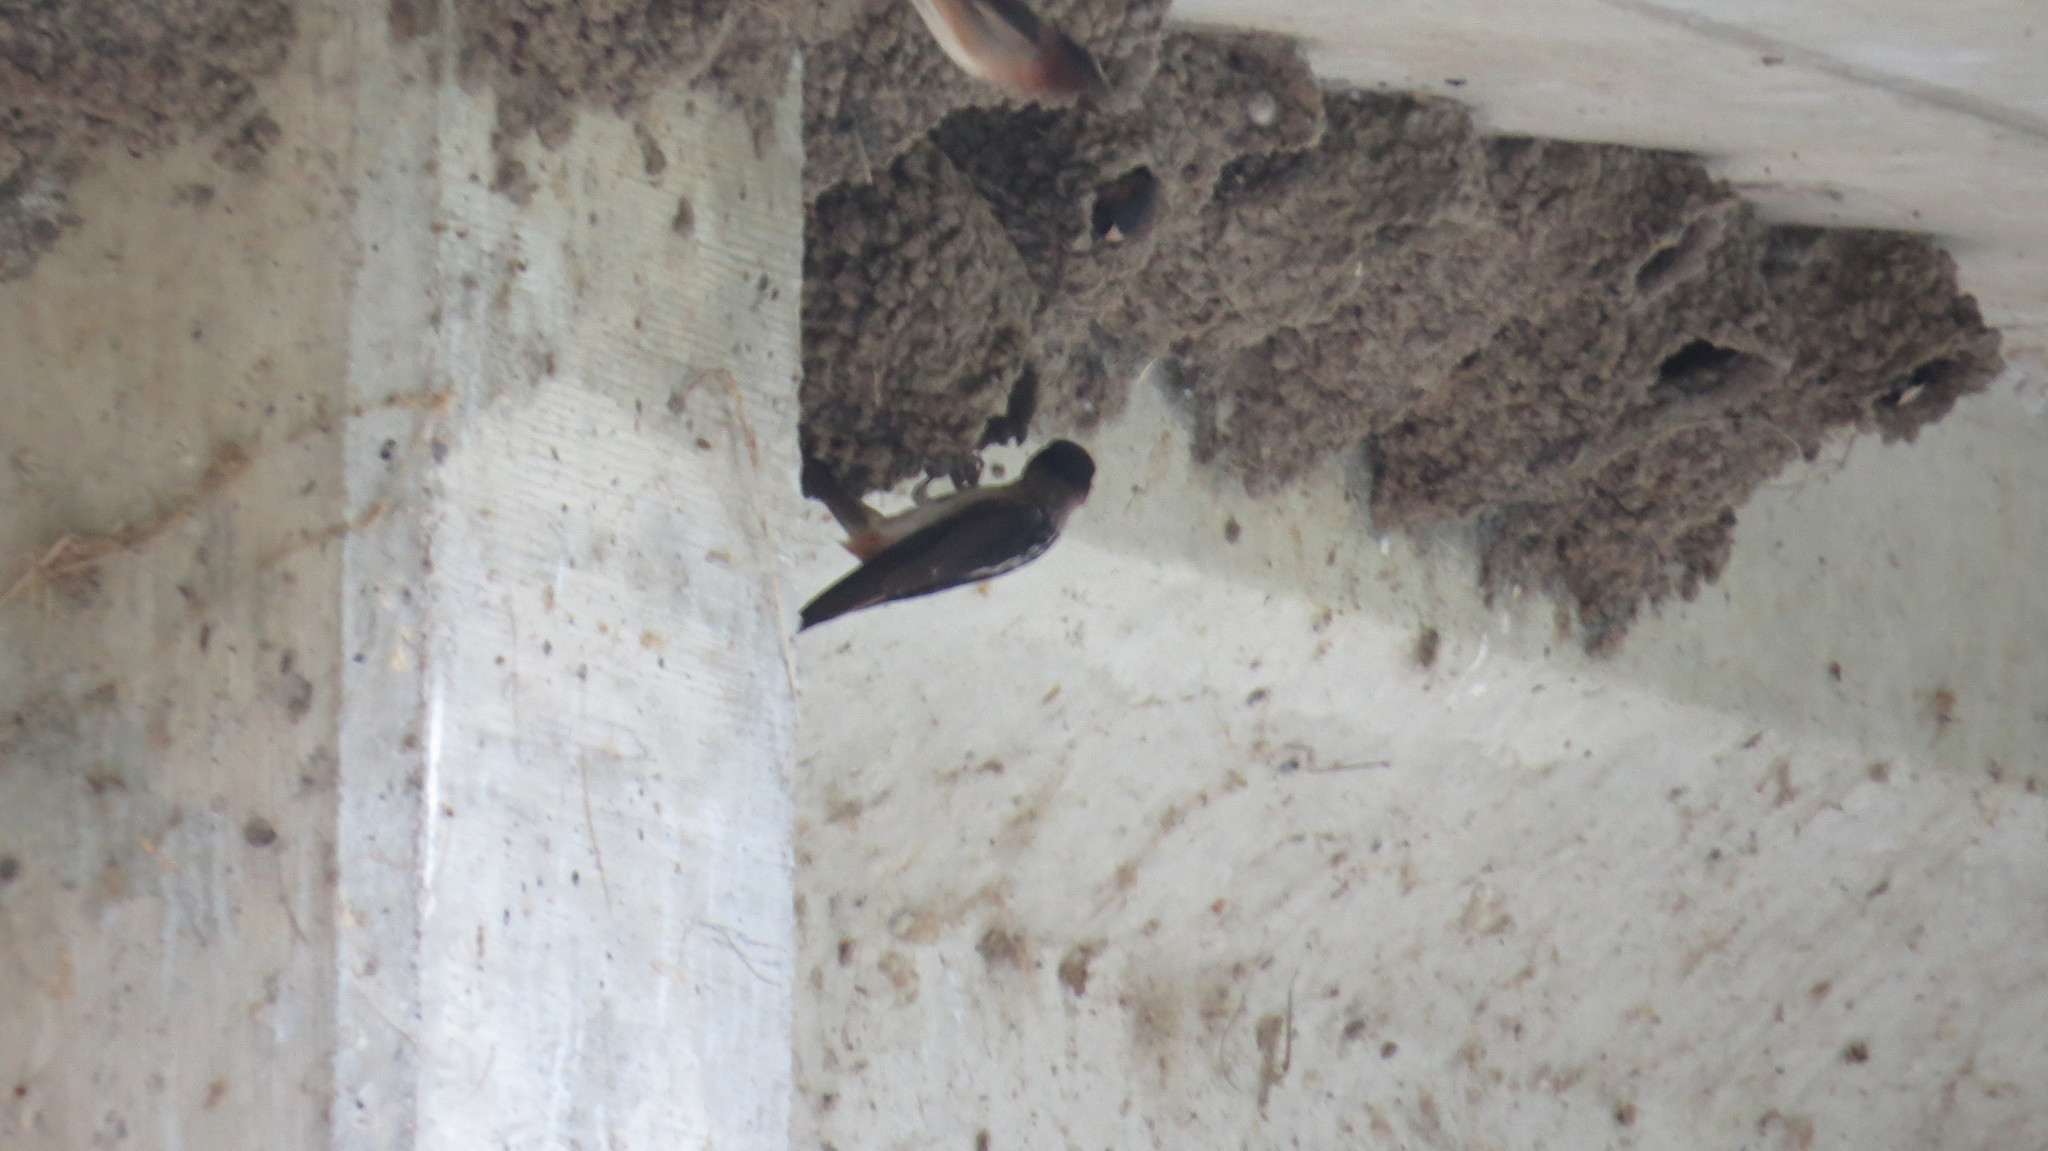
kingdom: Animalia
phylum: Chordata
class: Aves
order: Passeriformes
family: Hirundinidae
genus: Petrochelidon
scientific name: Petrochelidon pyrrhonota
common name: American cliff swallow
